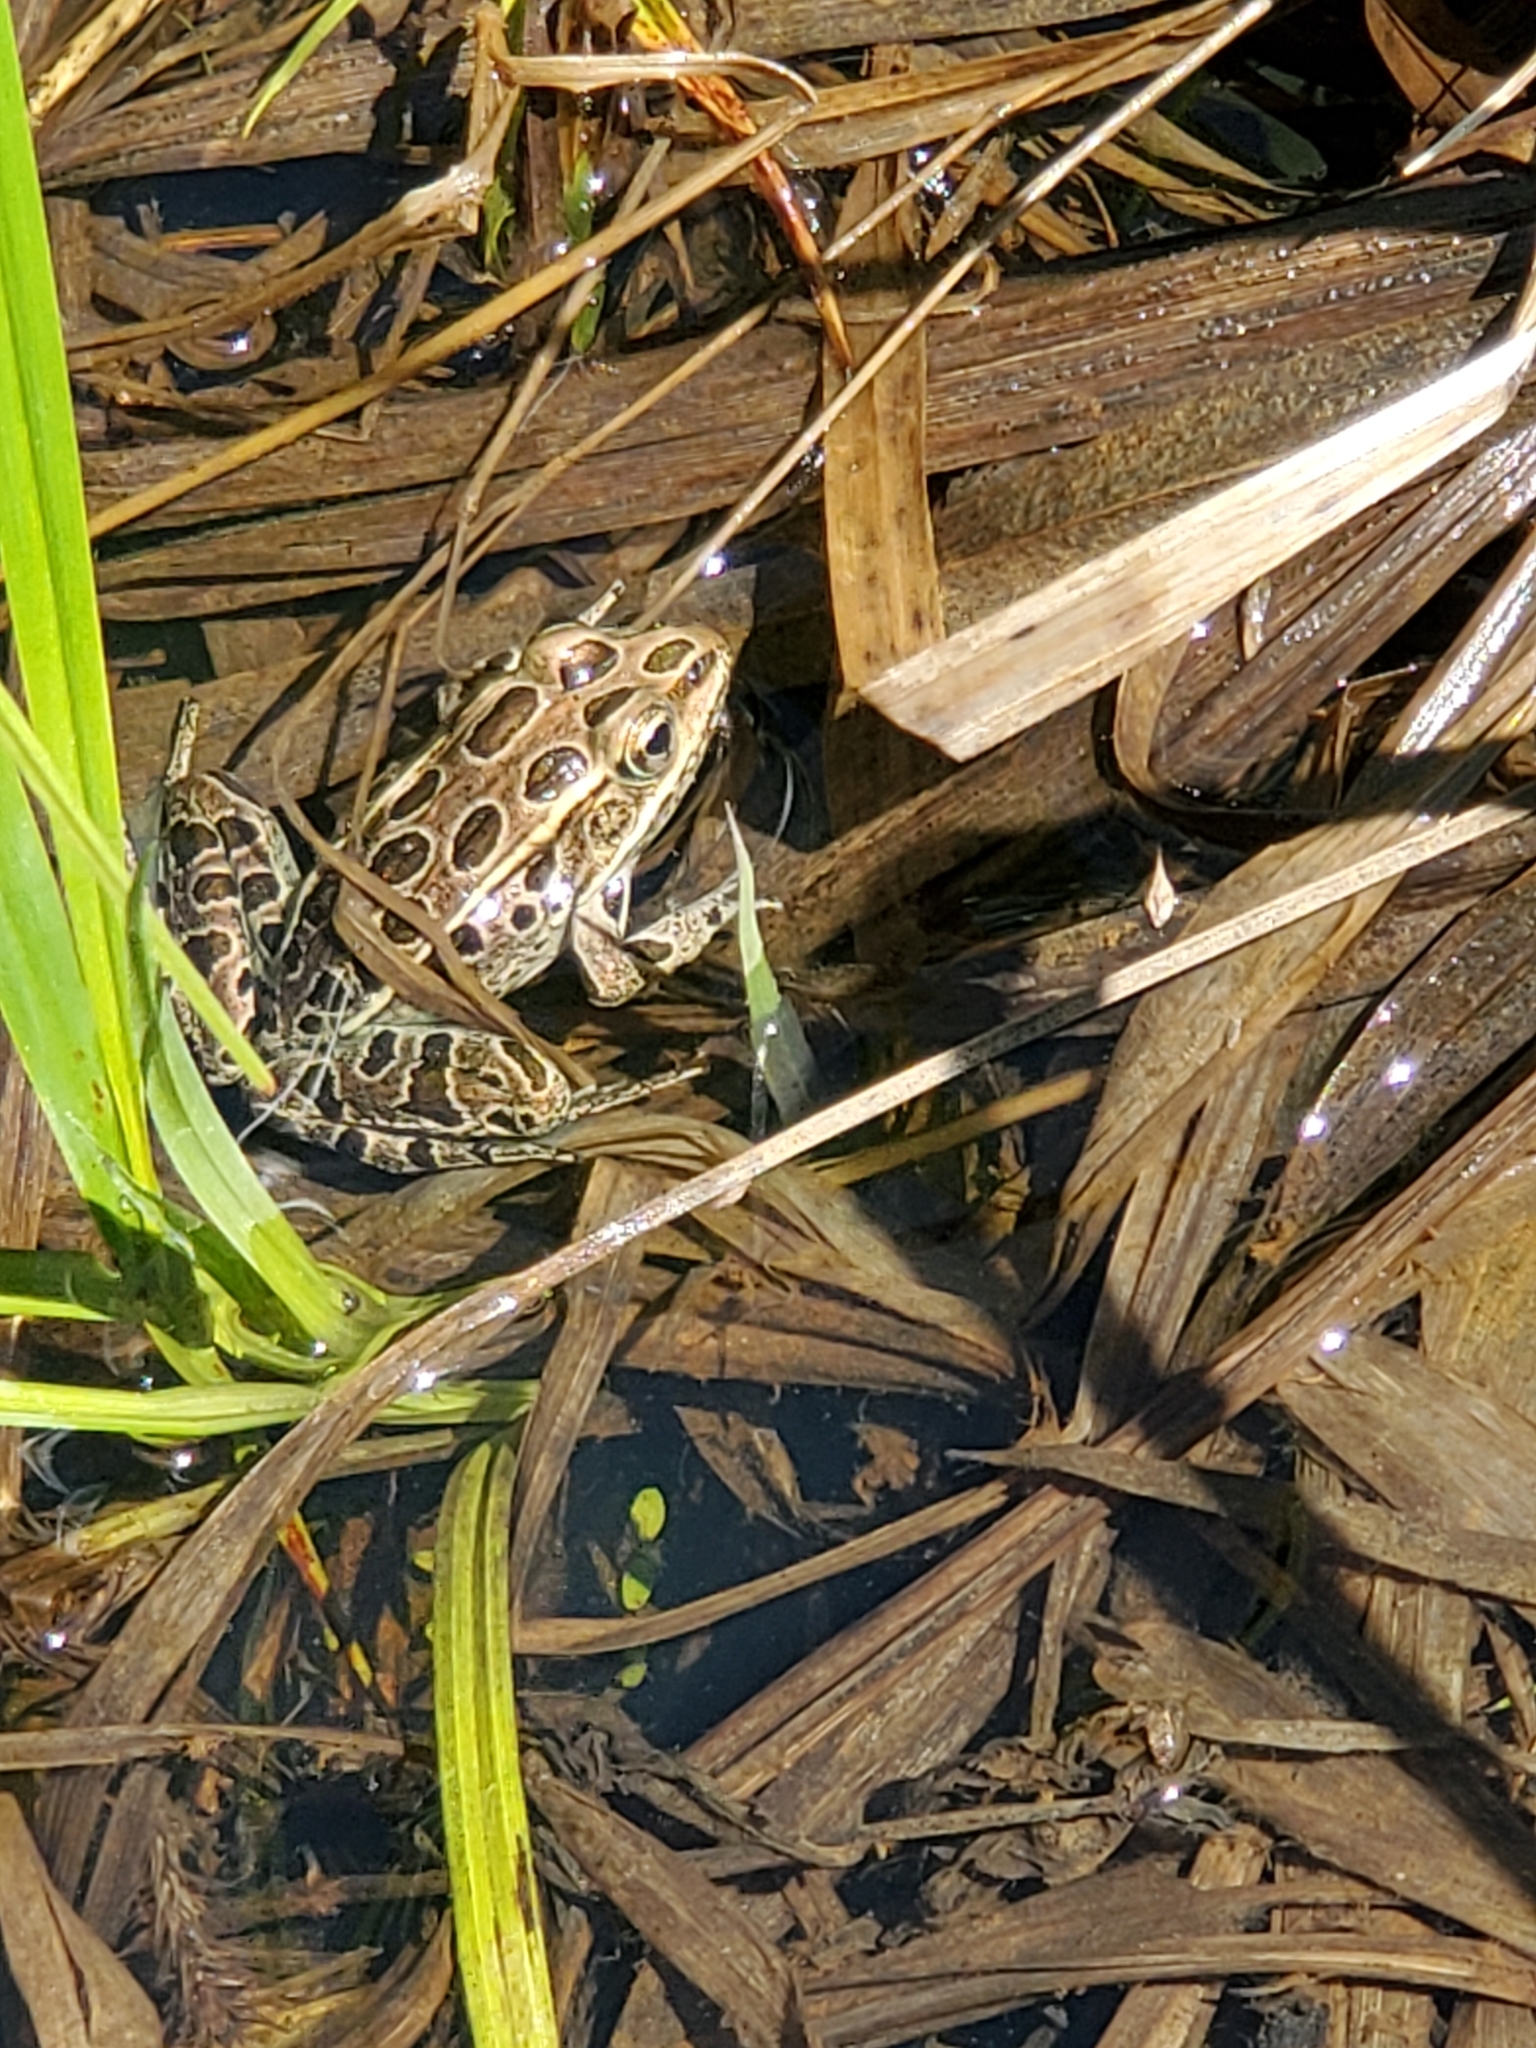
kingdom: Animalia
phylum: Chordata
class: Amphibia
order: Anura
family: Ranidae
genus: Lithobates
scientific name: Lithobates pipiens
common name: Northern leopard frog
